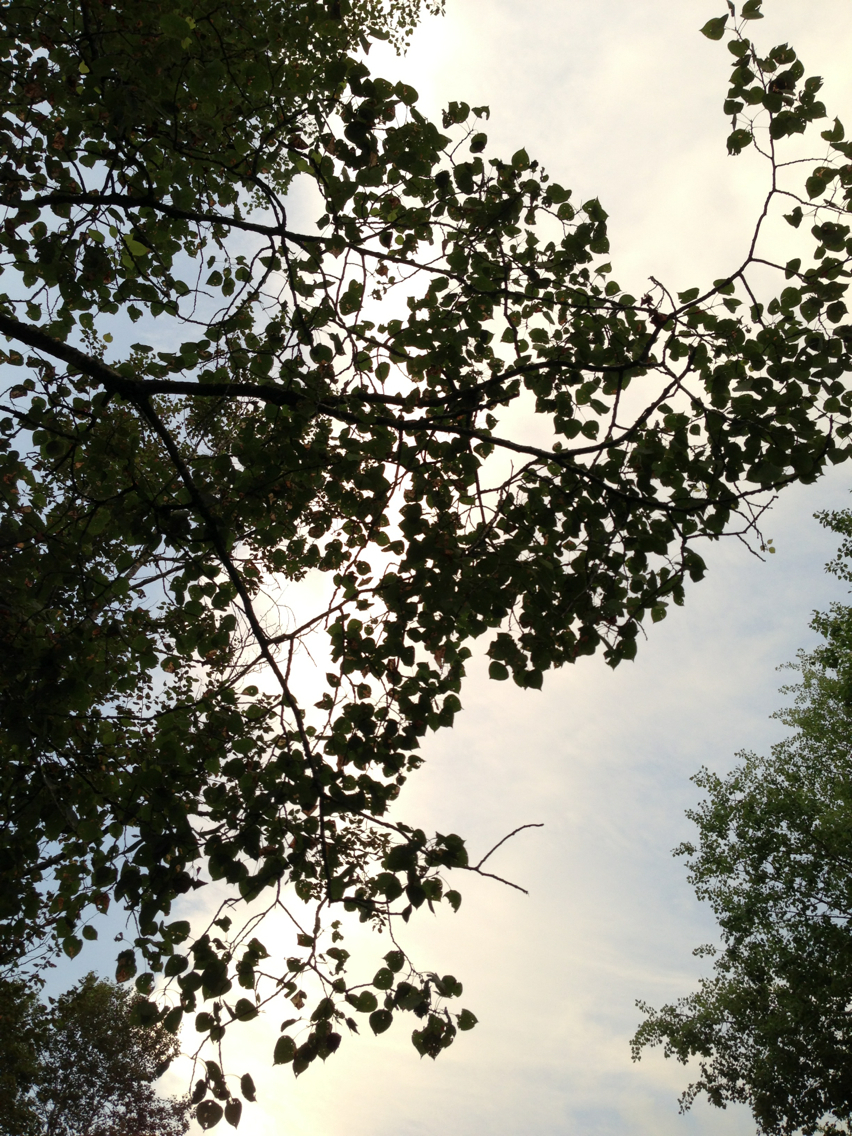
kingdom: Plantae
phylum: Tracheophyta
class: Magnoliopsida
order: Malpighiales
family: Salicaceae
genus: Populus
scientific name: Populus tremuloides
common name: Quaking aspen
